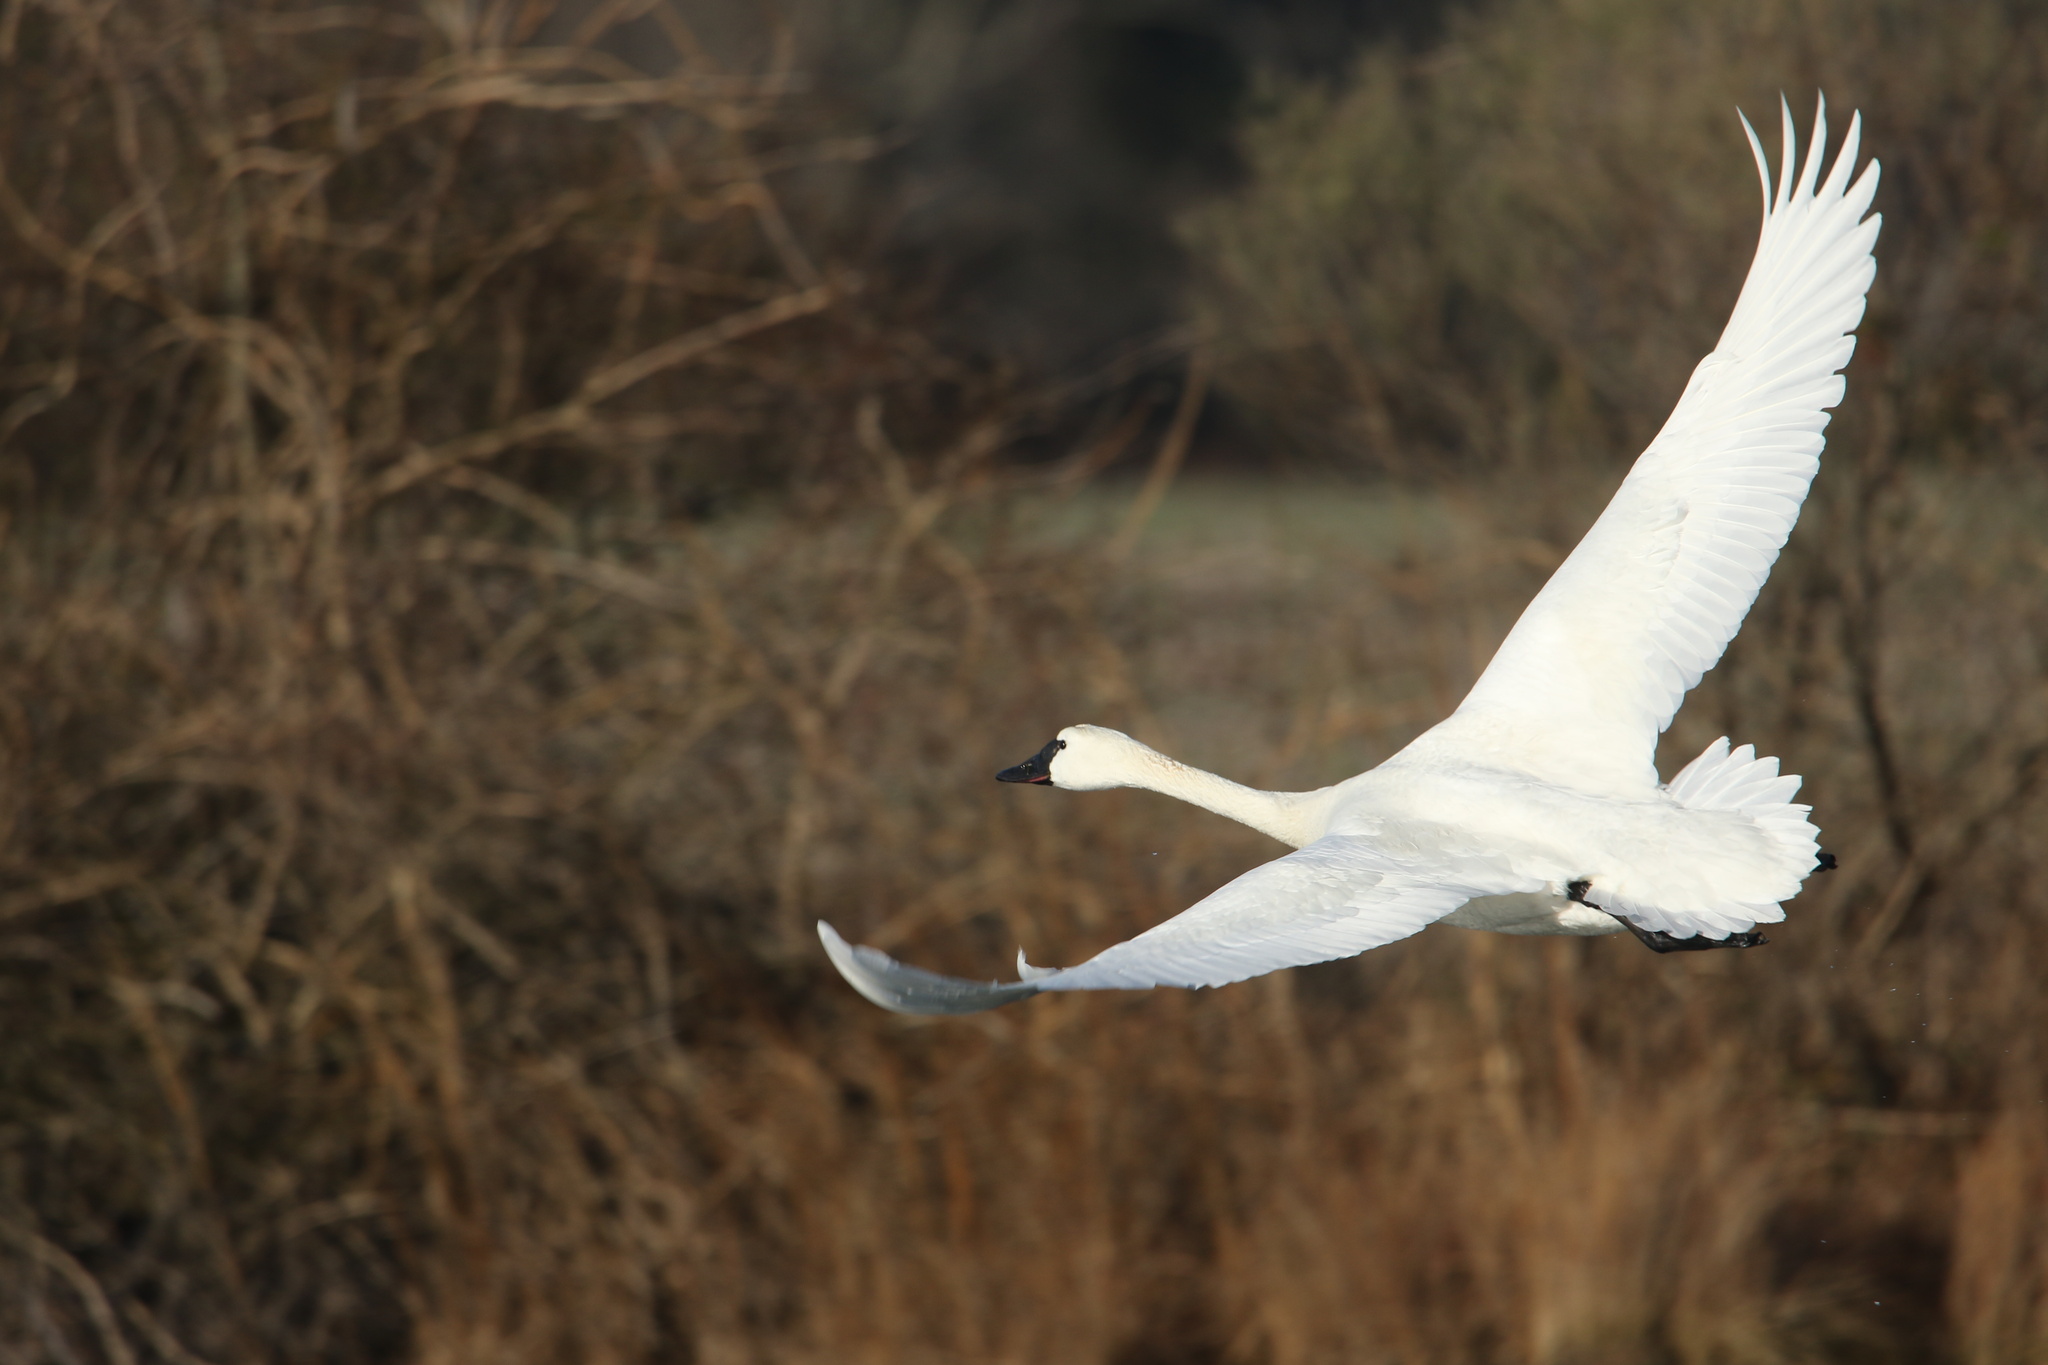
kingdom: Animalia
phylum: Chordata
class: Aves
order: Anseriformes
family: Anatidae
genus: Cygnus
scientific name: Cygnus columbianus
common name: Tundra swan
